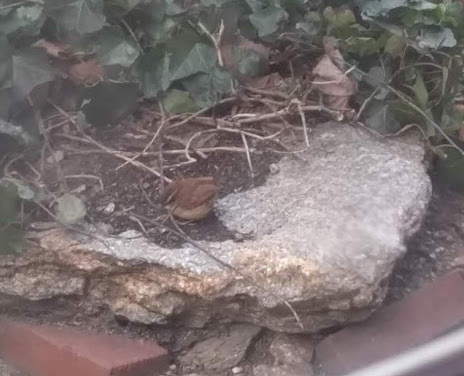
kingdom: Animalia
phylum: Chordata
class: Aves
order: Passeriformes
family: Troglodytidae
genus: Thryothorus
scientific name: Thryothorus ludovicianus
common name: Carolina wren
